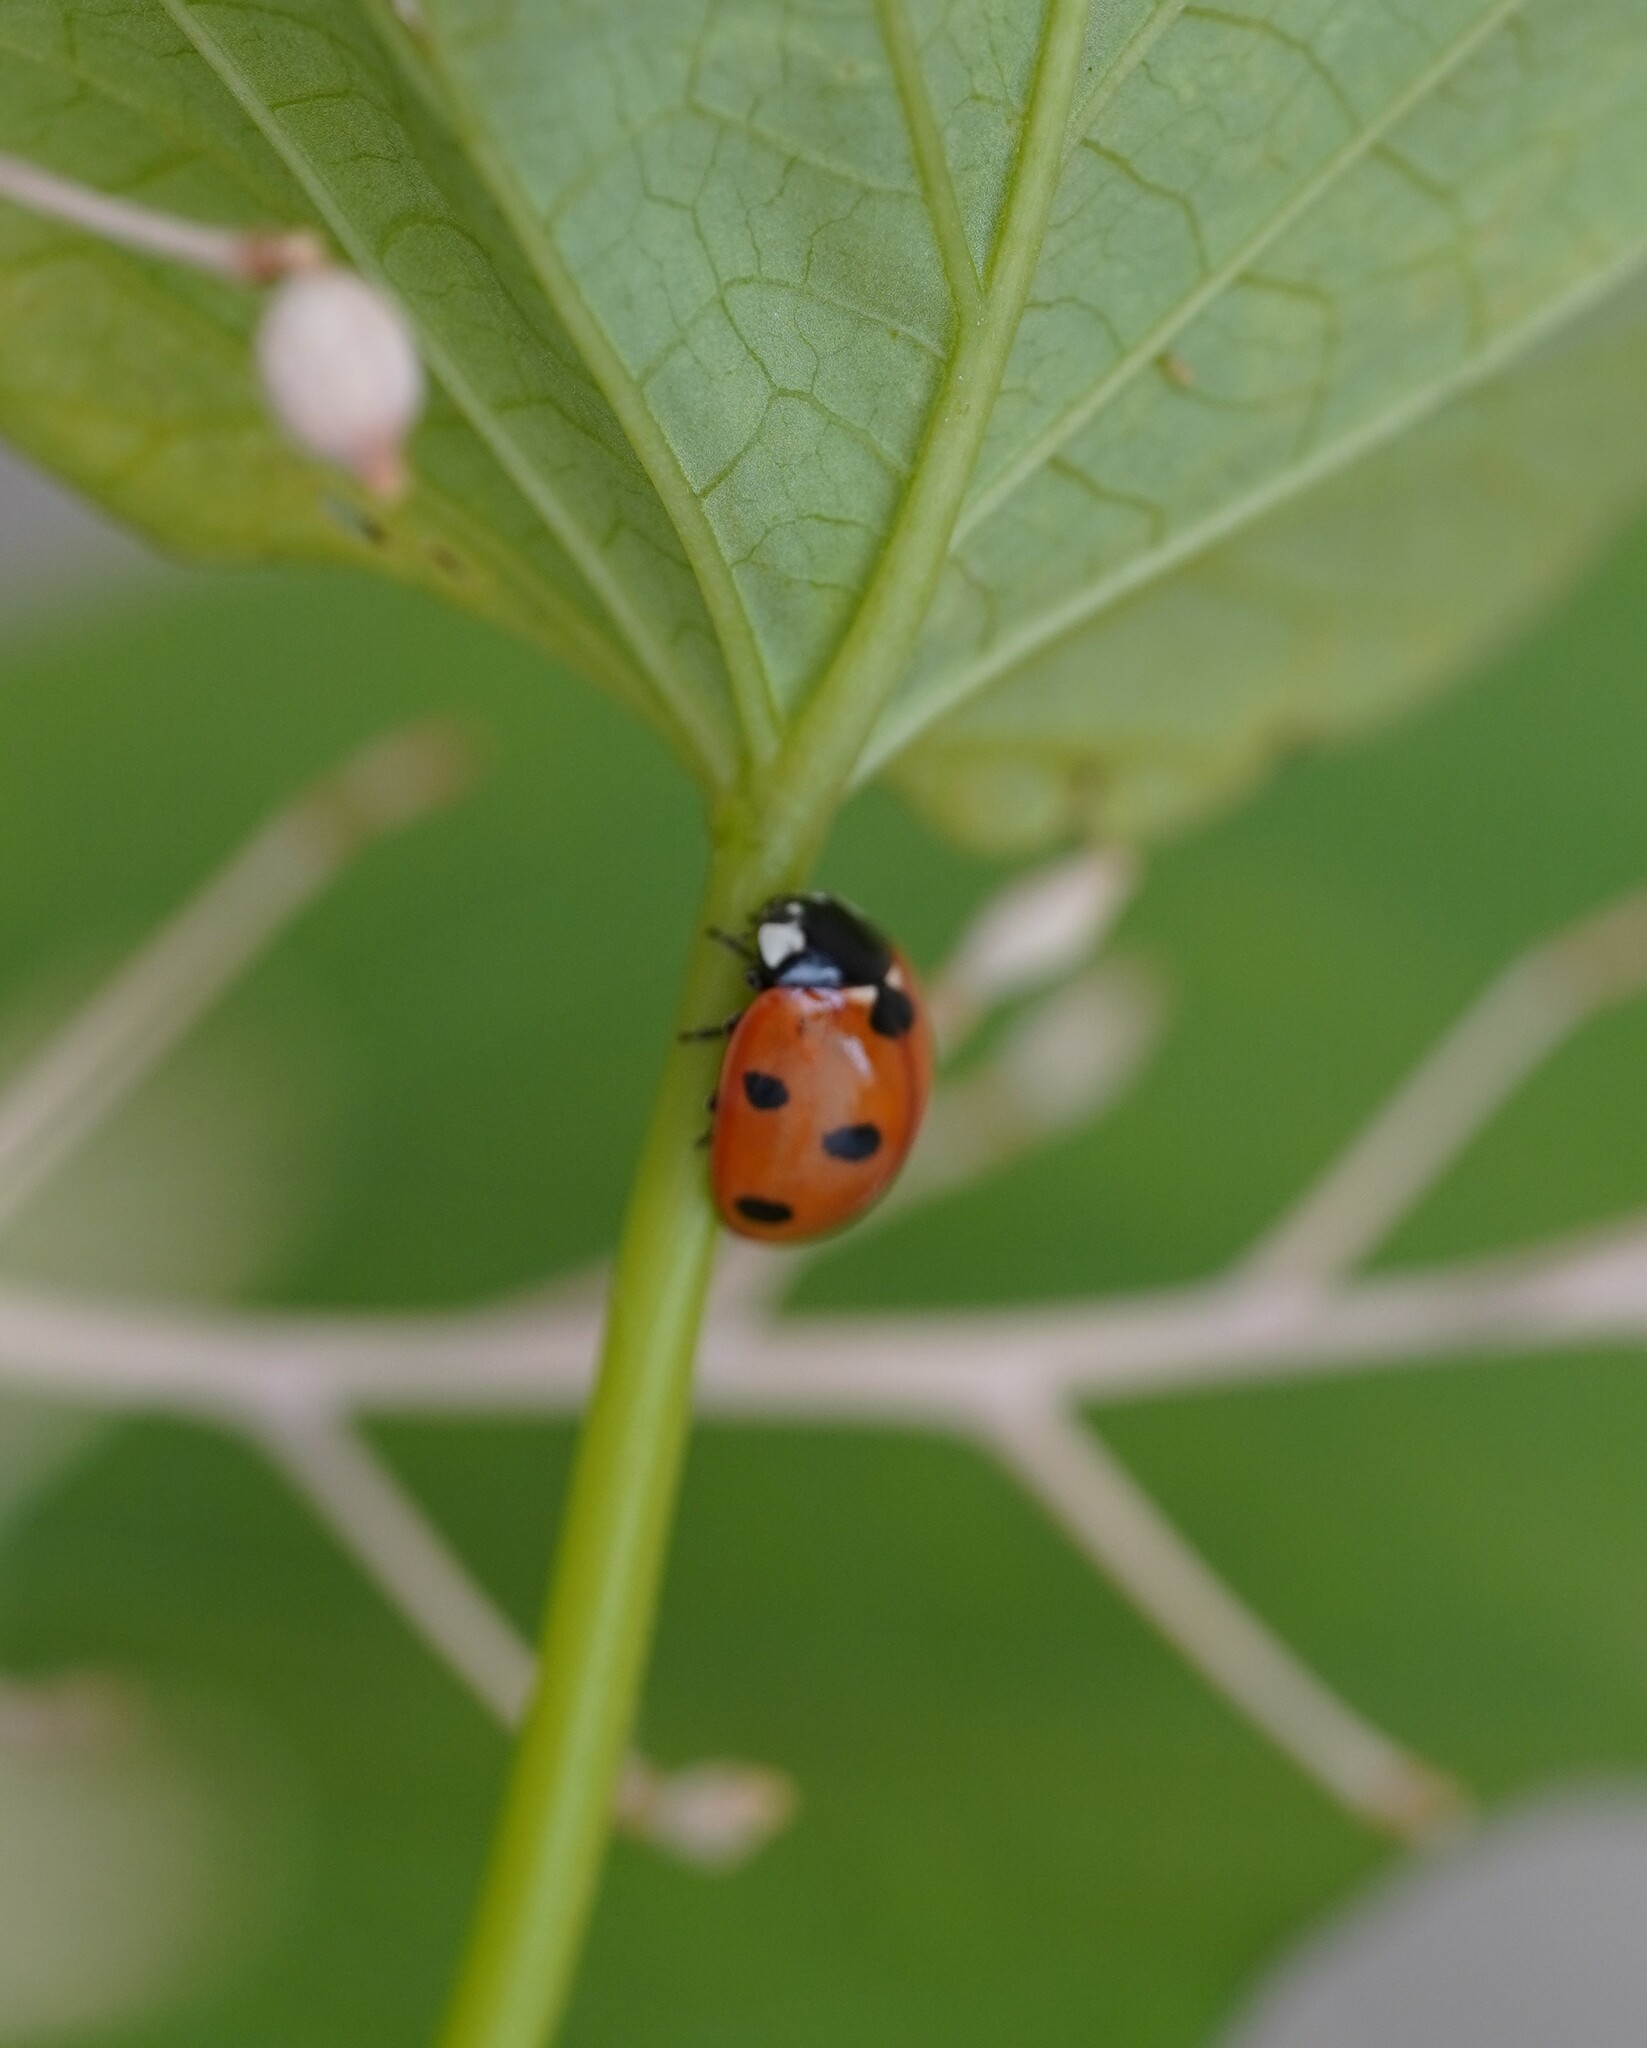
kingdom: Animalia
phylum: Arthropoda
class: Insecta
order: Coleoptera
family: Coccinellidae
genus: Coccinella
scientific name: Coccinella septempunctata
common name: Sevenspotted lady beetle
